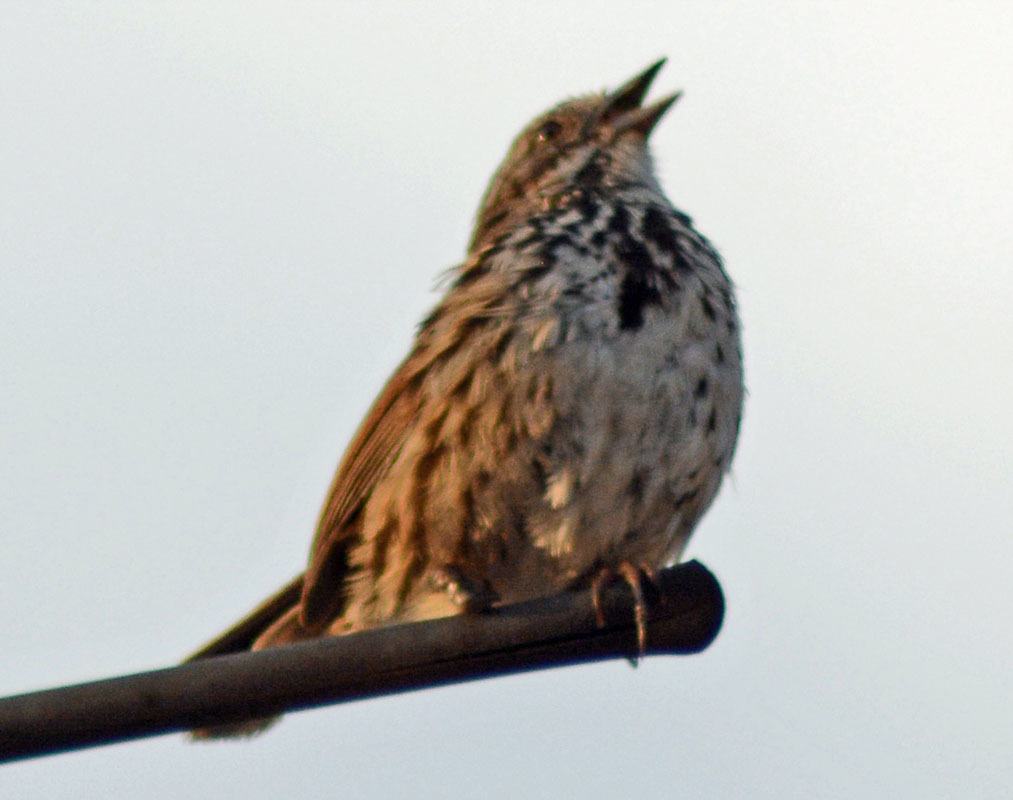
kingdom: Animalia
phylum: Chordata
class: Aves
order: Passeriformes
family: Passerellidae
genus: Melospiza
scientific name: Melospiza melodia
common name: Song sparrow
